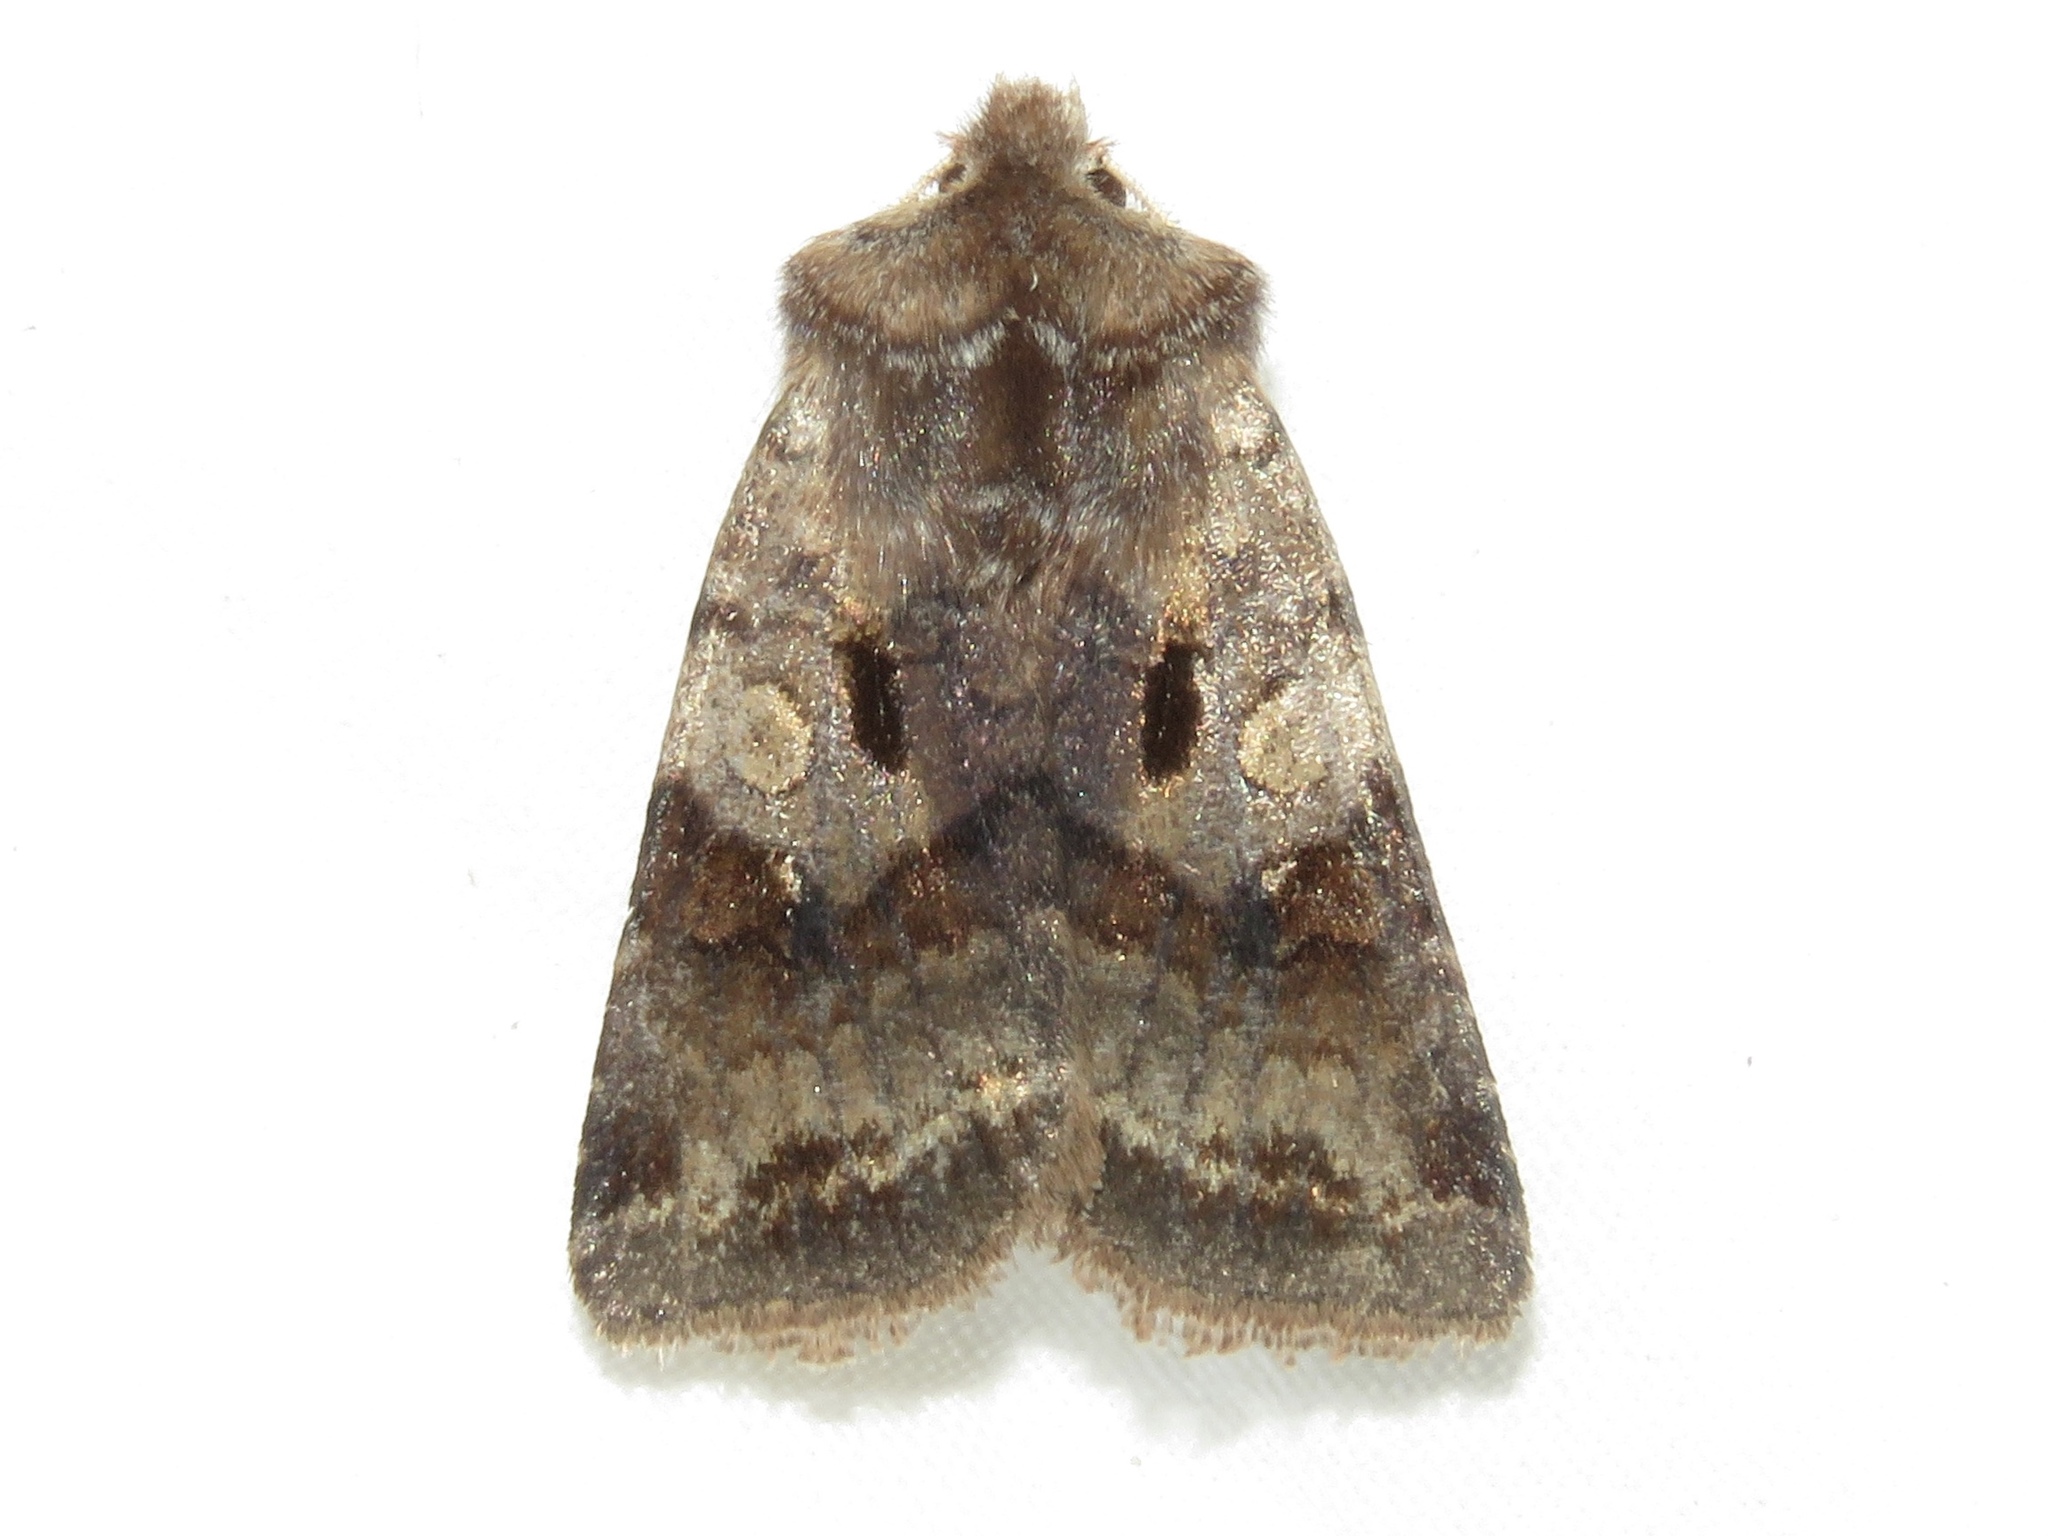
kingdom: Animalia
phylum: Arthropoda
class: Insecta
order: Lepidoptera
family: Noctuidae
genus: Cerastis
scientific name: Cerastis salicarum
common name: Willow dart
